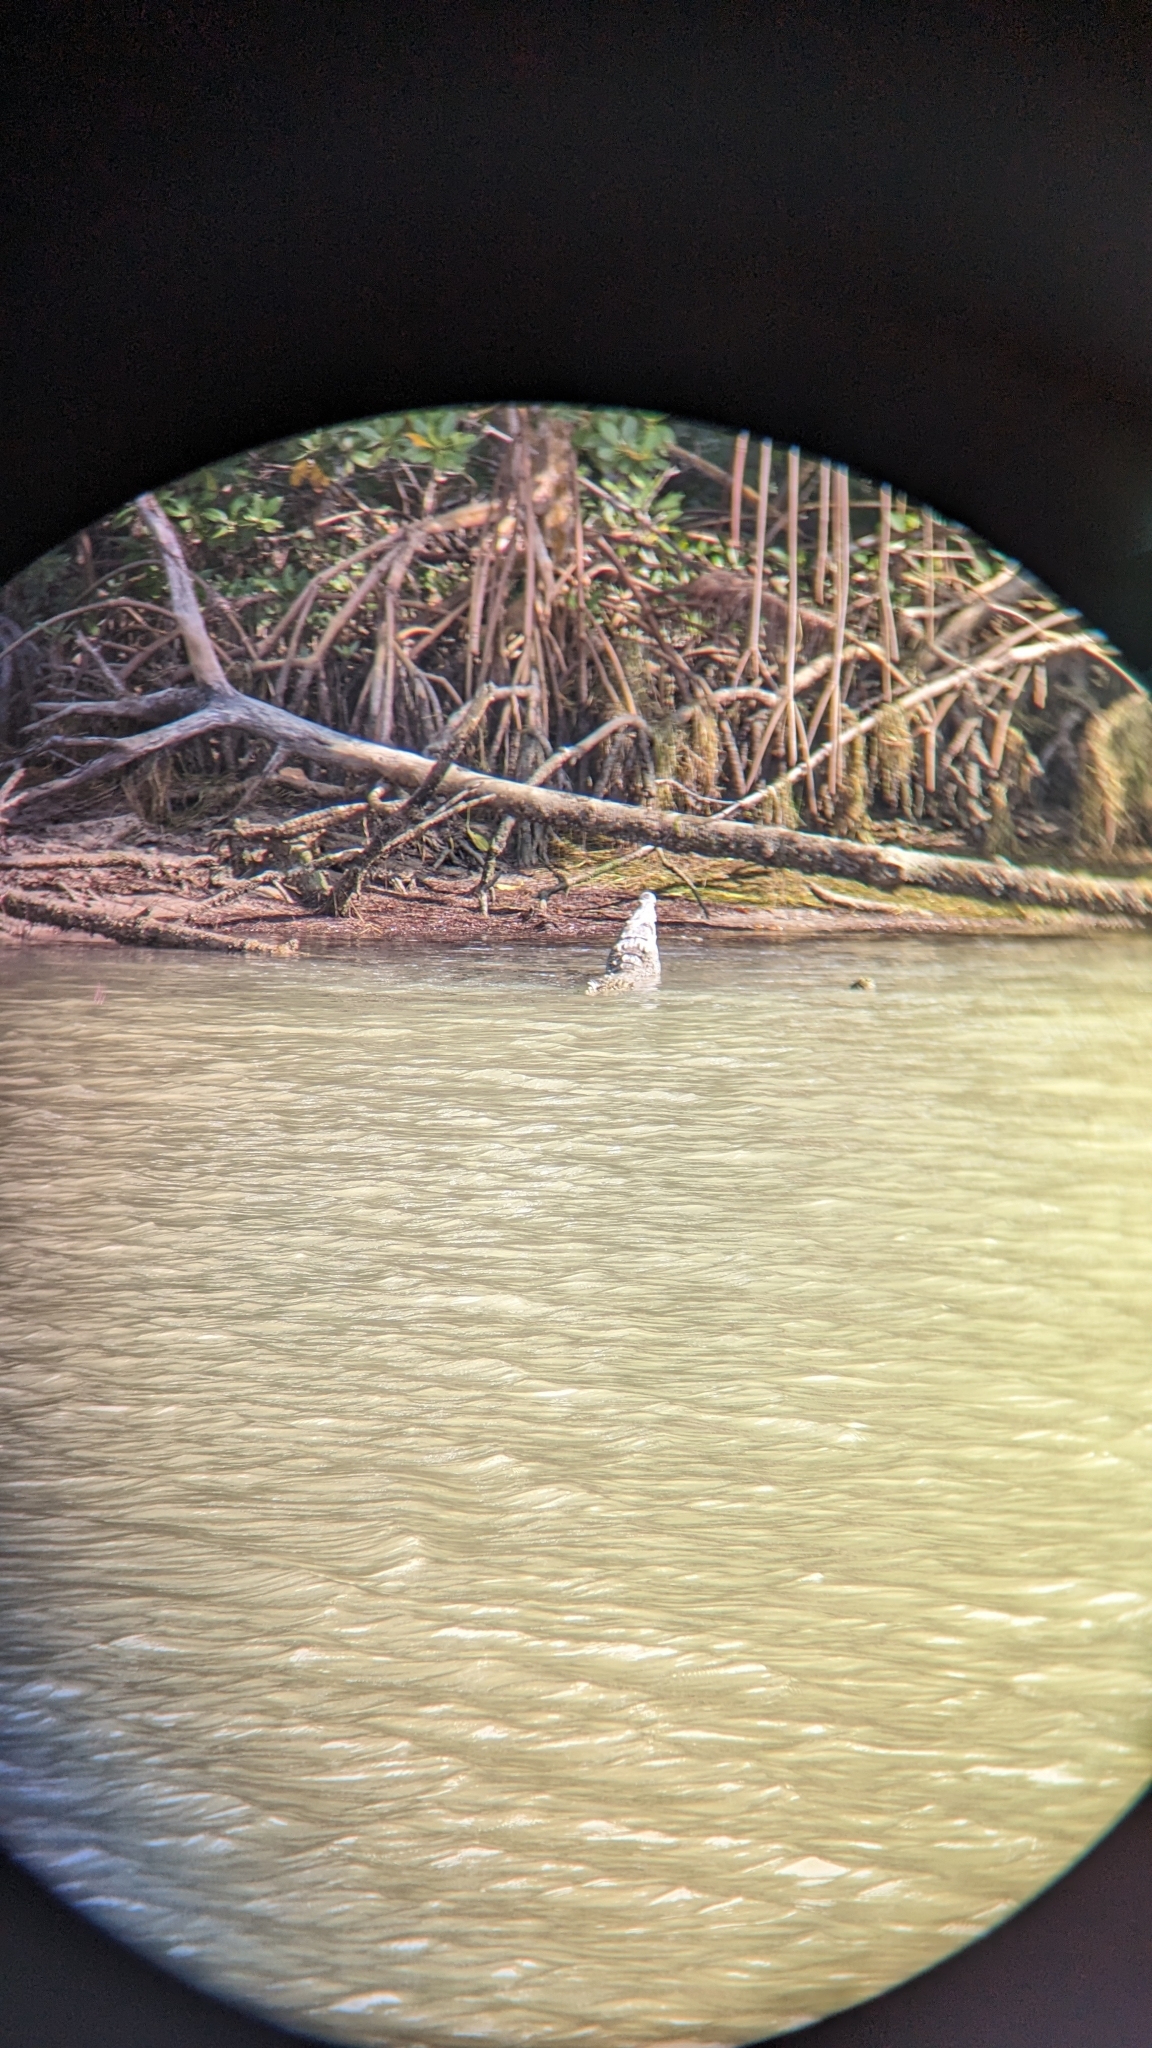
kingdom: Animalia
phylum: Chordata
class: Crocodylia
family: Crocodylidae
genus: Crocodylus
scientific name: Crocodylus acutus
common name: American crocodile
